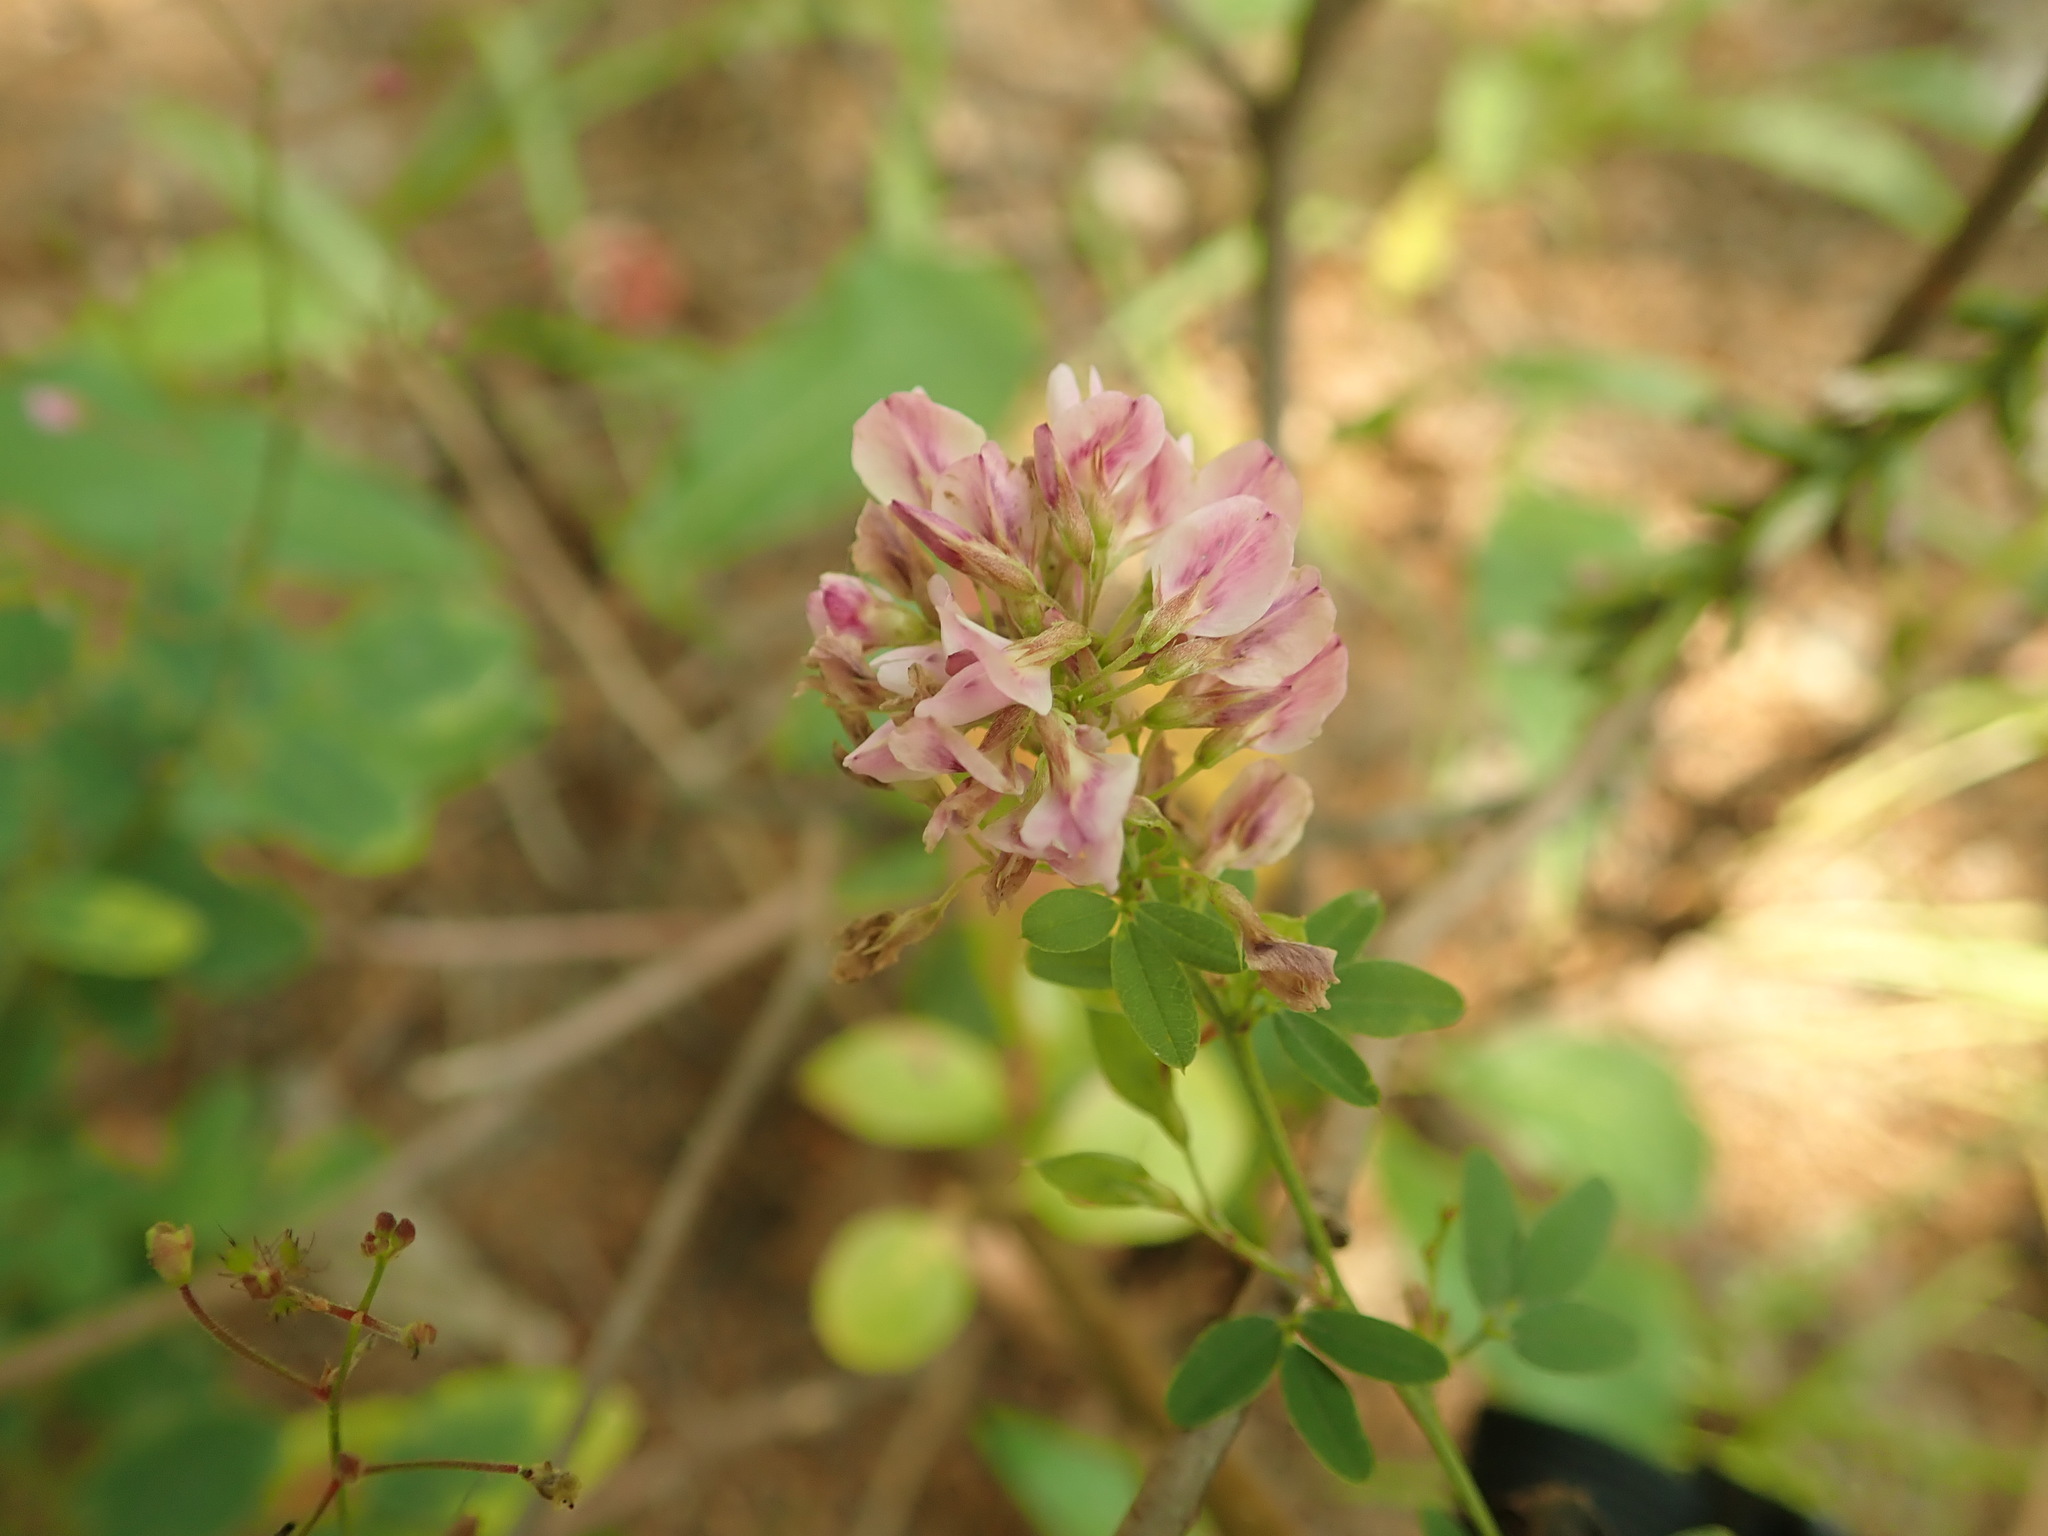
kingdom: Plantae
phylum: Tracheophyta
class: Magnoliopsida
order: Fabales
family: Fabaceae
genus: Lespedeza
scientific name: Lespedeza virginica
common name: Slender bush-clover
